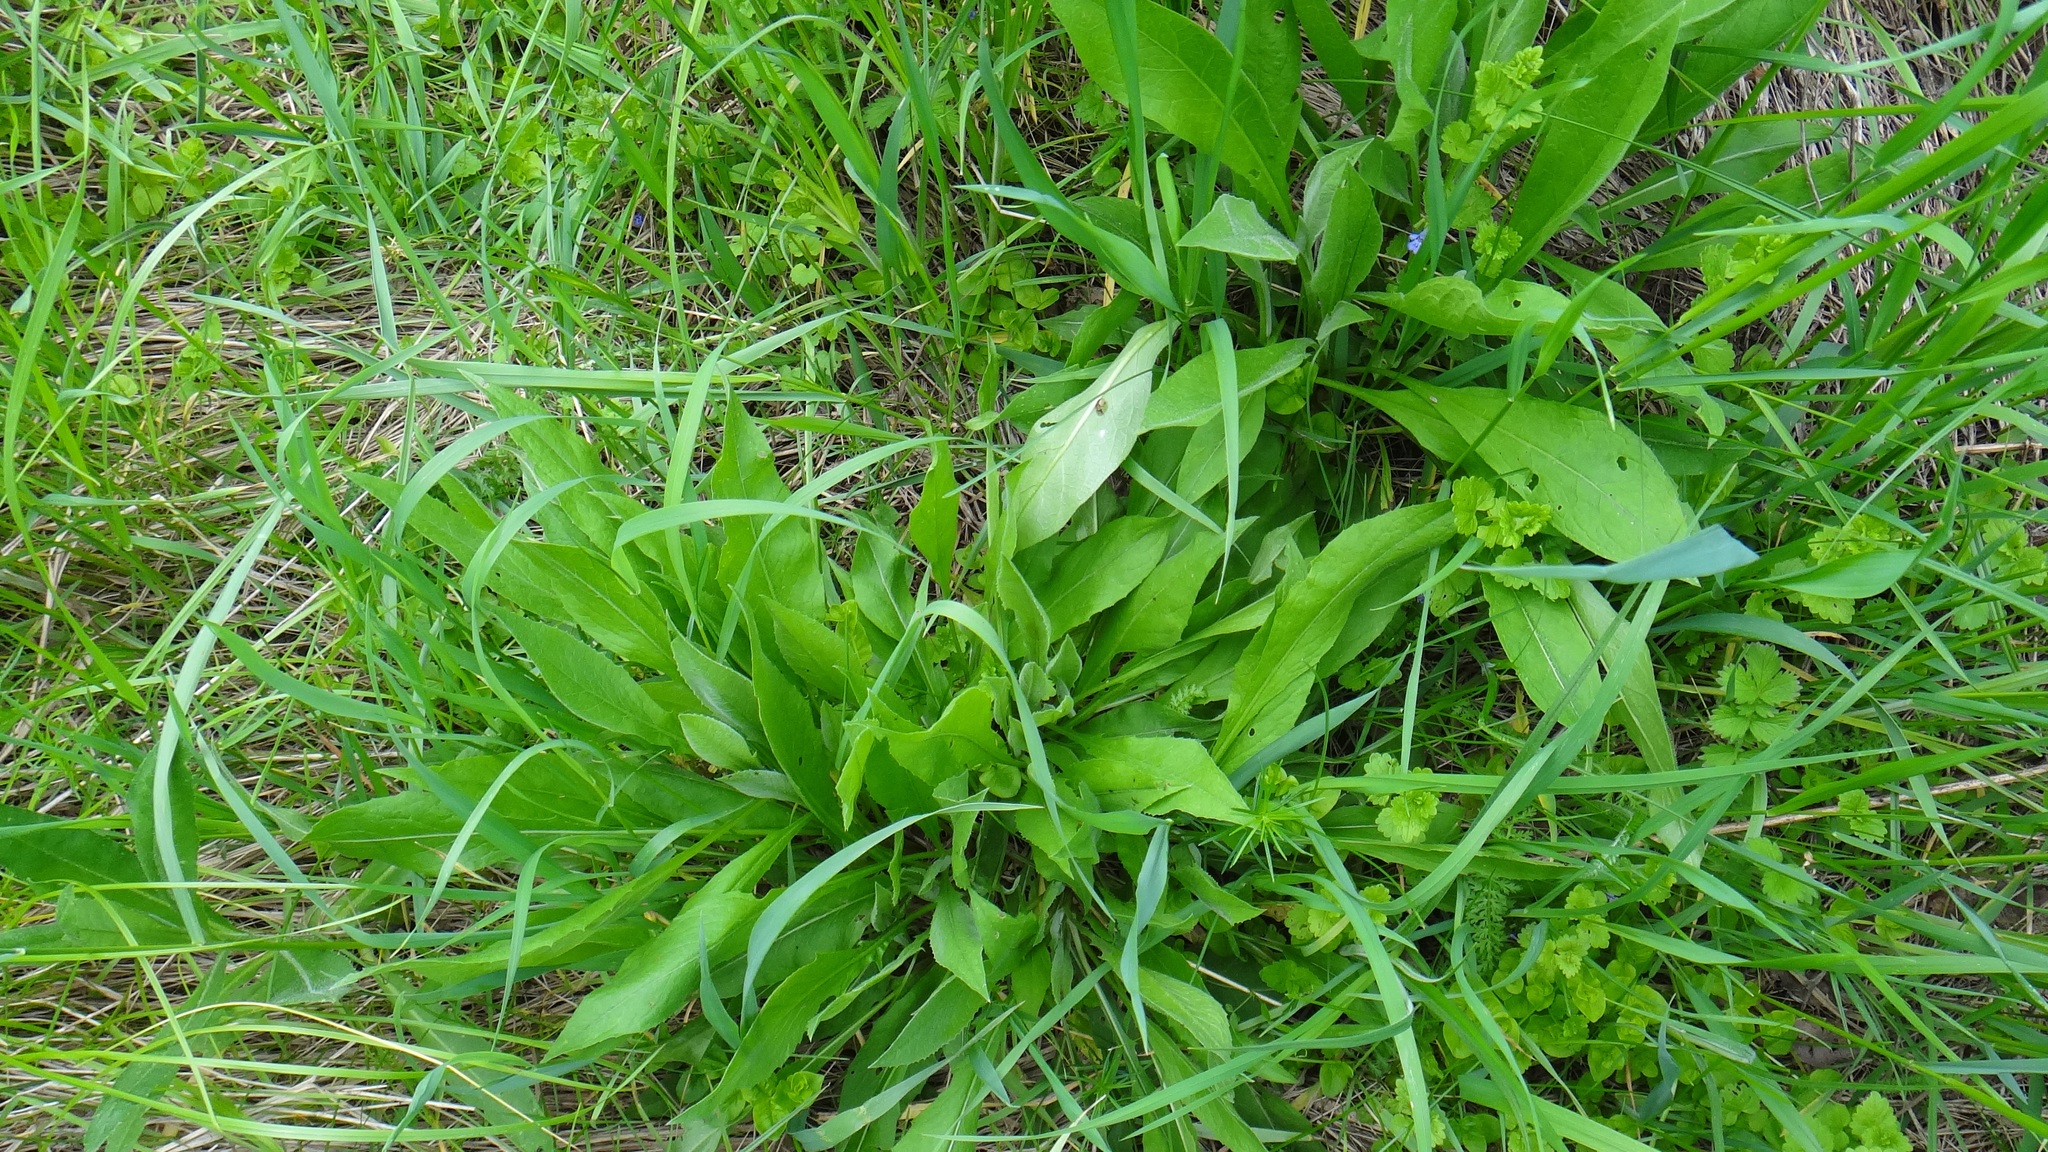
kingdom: Plantae
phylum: Tracheophyta
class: Magnoliopsida
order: Asterales
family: Asteraceae
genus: Centaurea
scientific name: Centaurea jacea
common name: Brown knapweed
